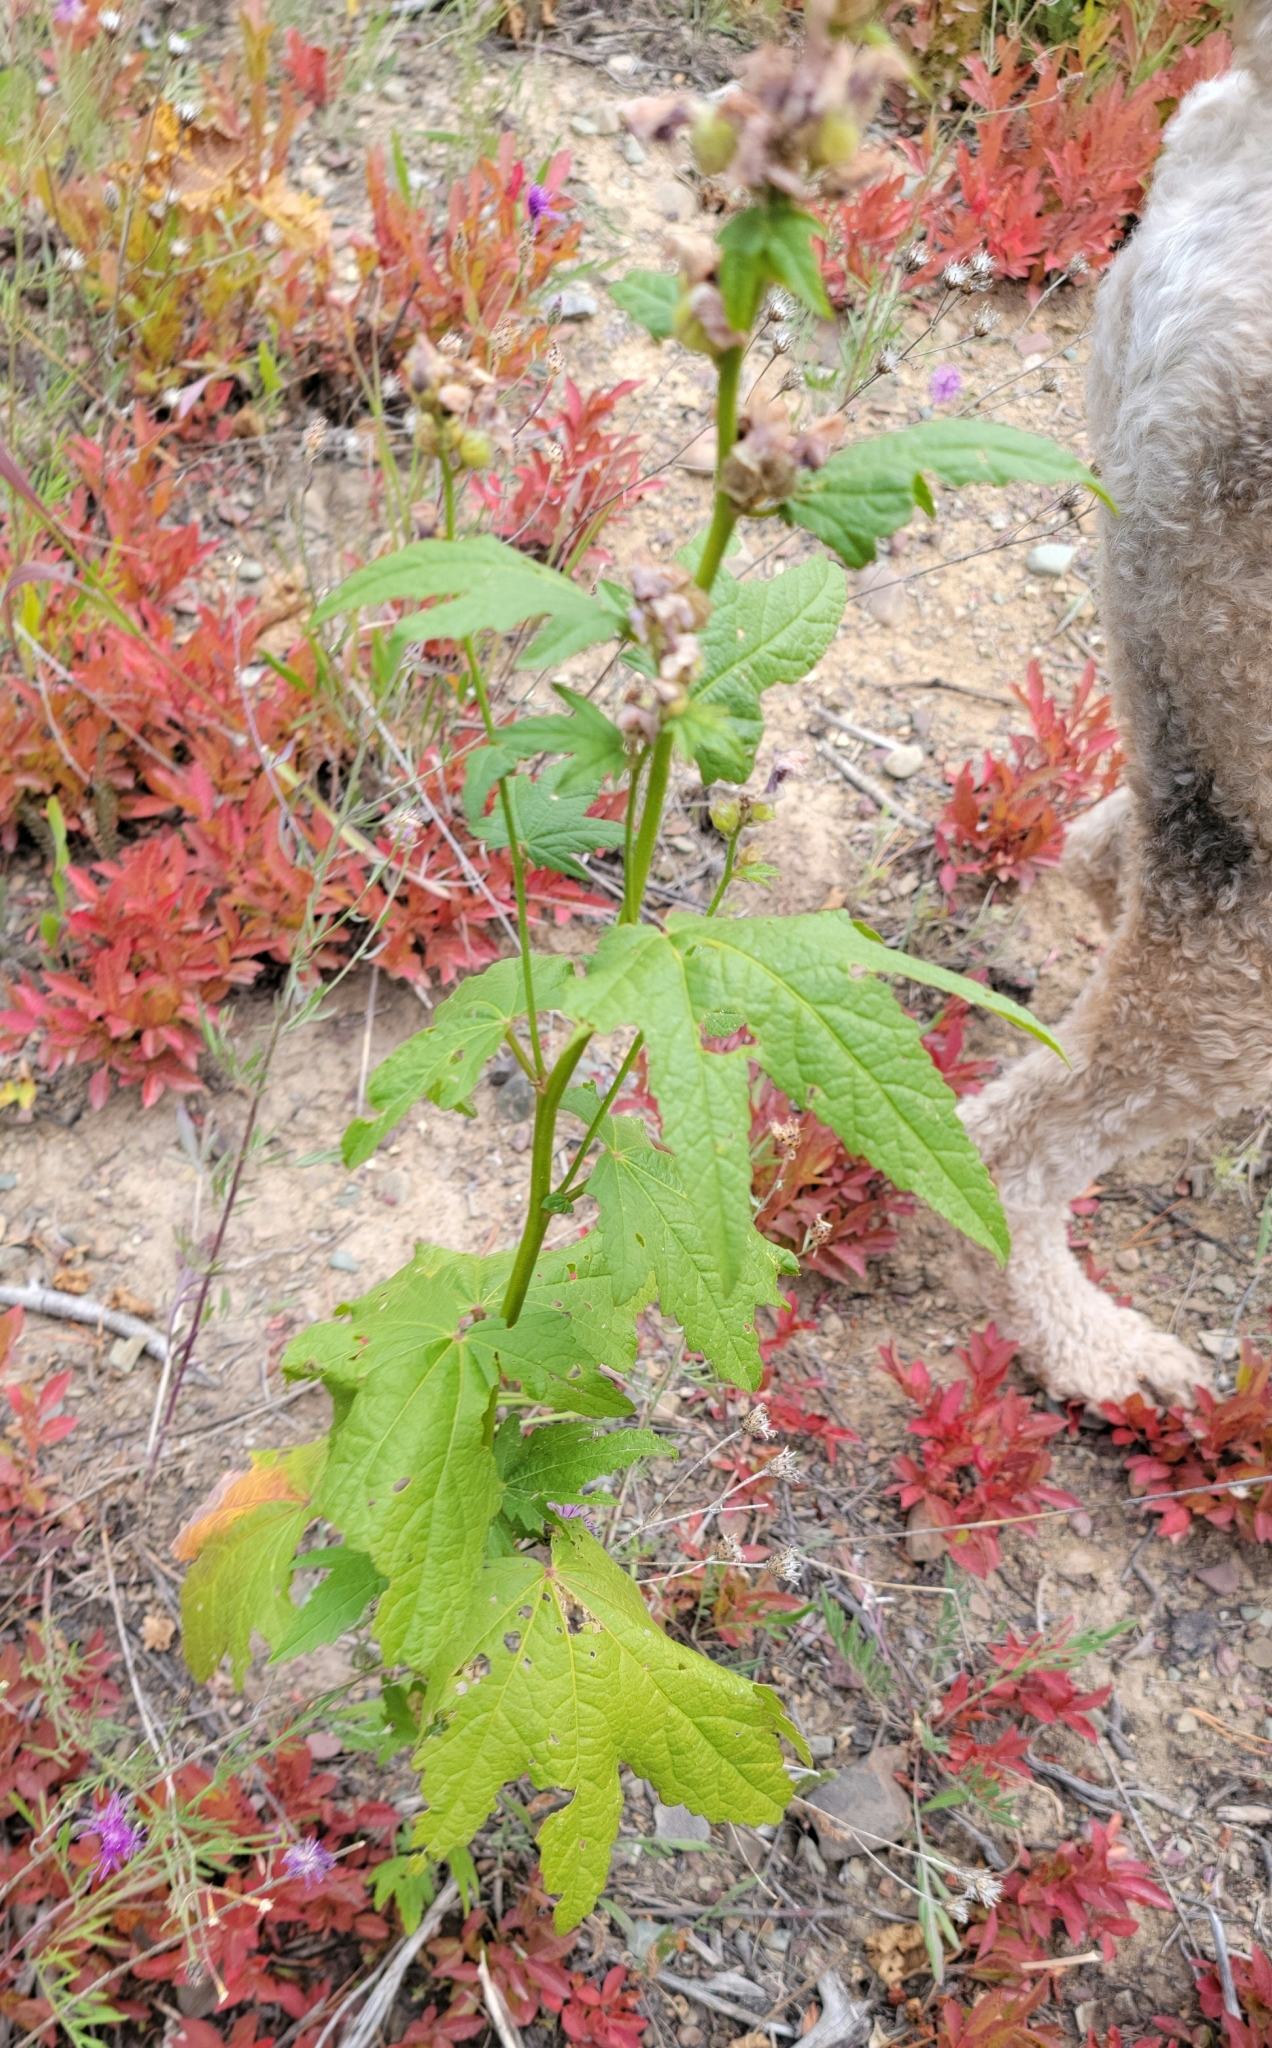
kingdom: Plantae
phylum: Tracheophyta
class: Magnoliopsida
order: Malvales
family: Malvaceae
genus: Iliamna
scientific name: Iliamna rivularis
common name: Wild hollyhock
